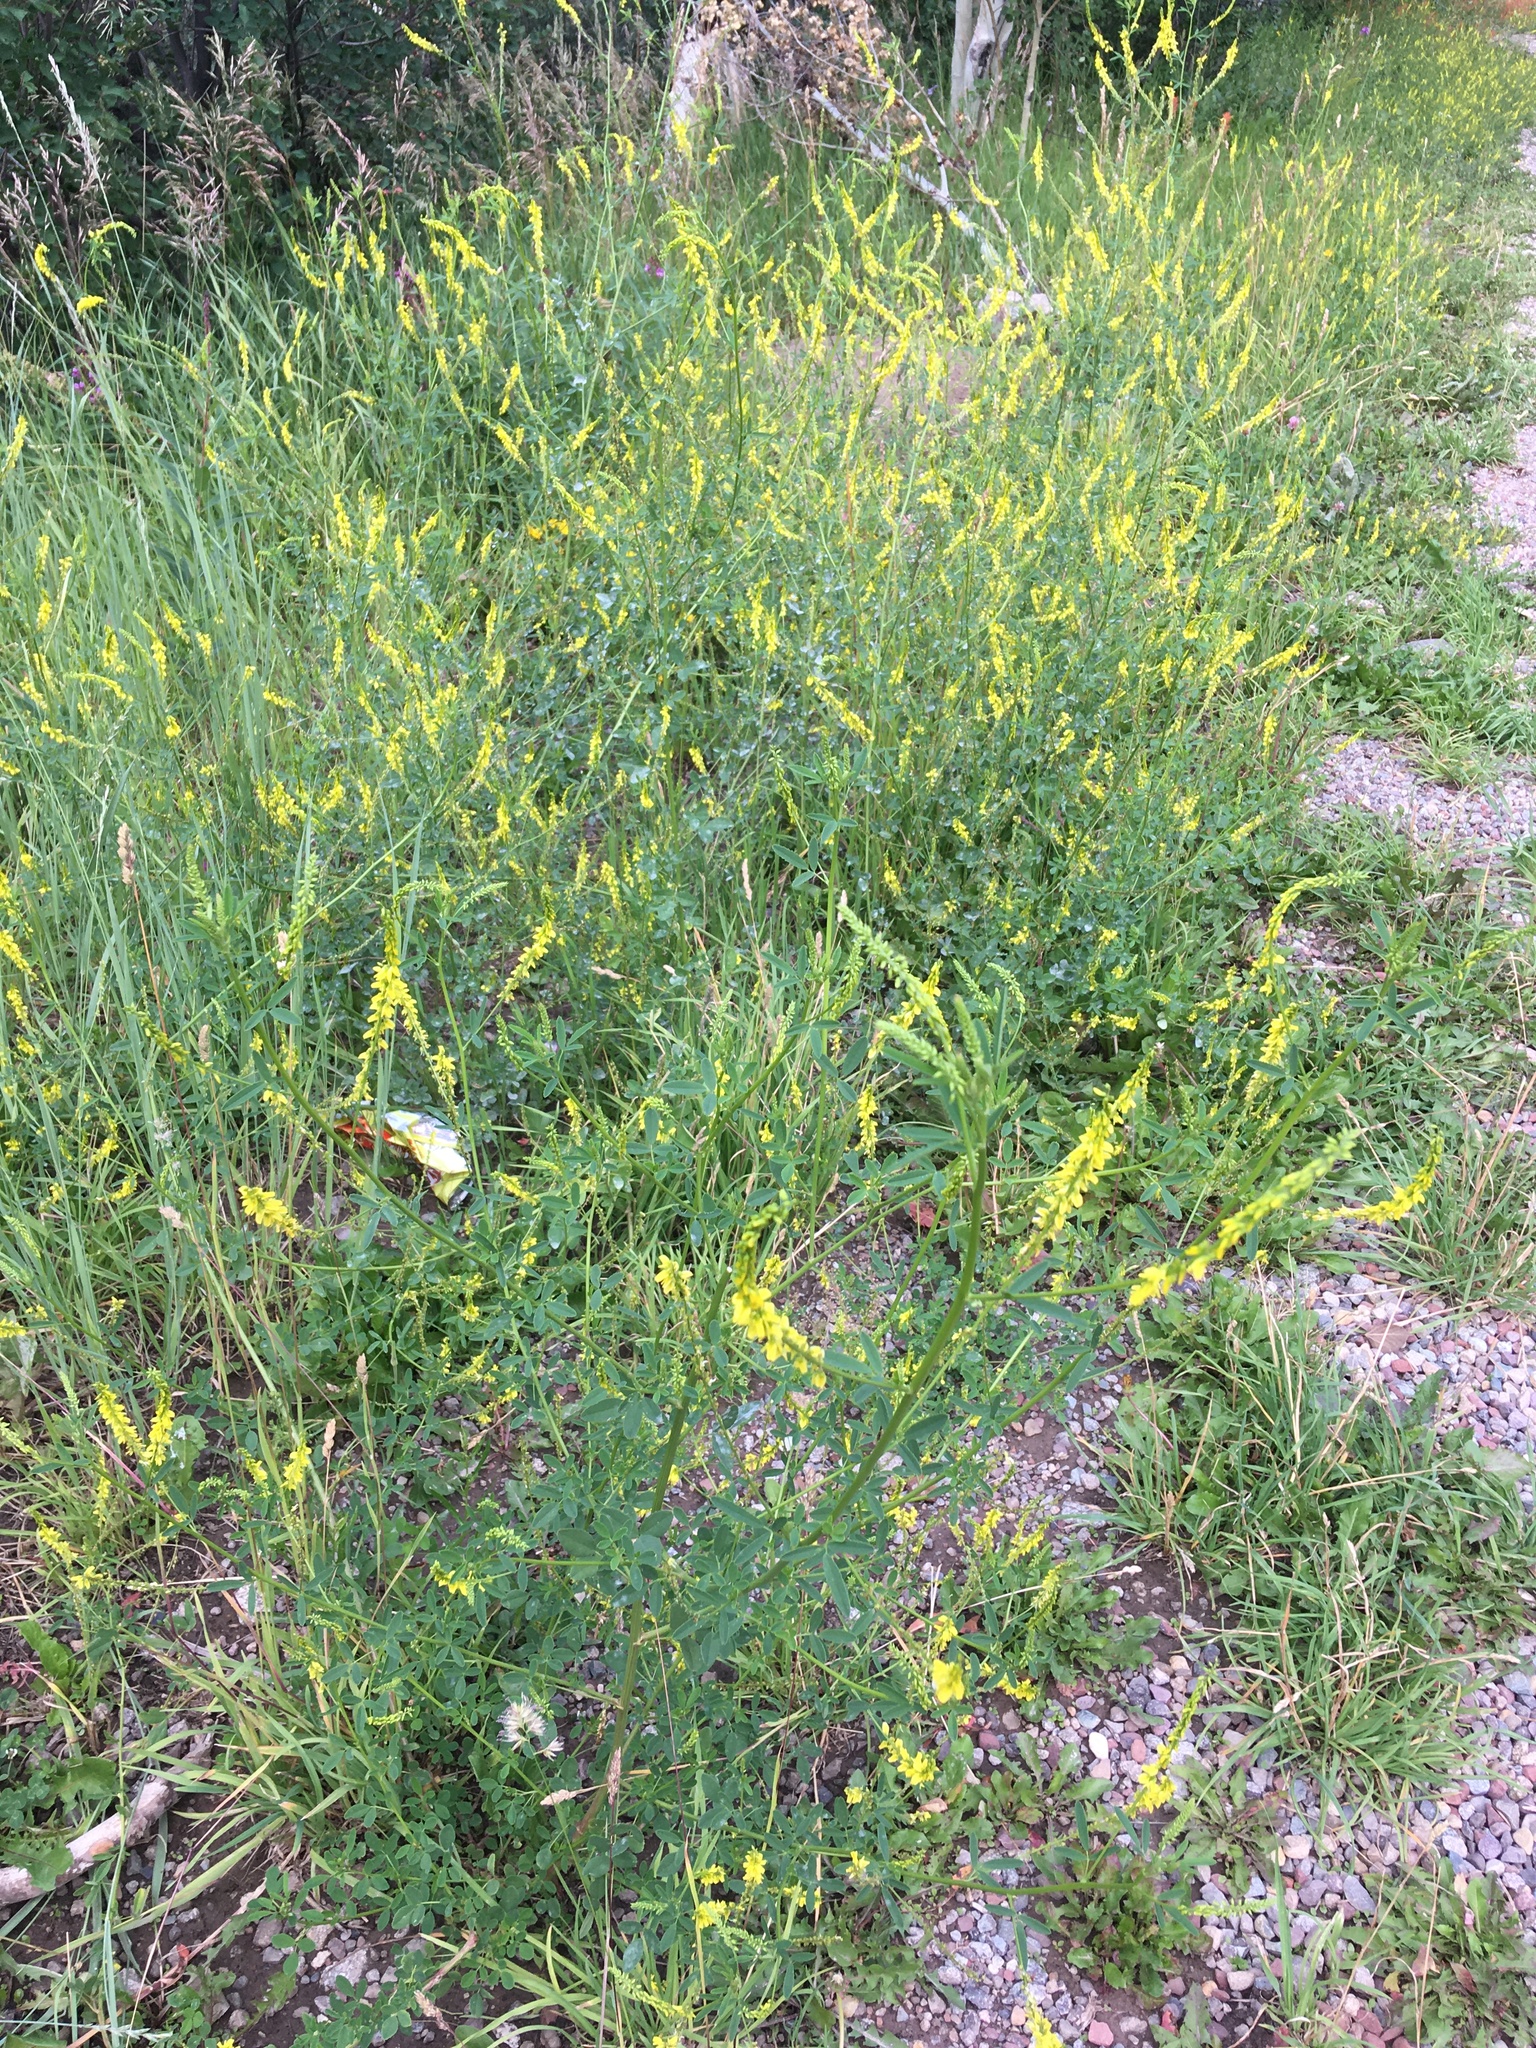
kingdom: Plantae
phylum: Tracheophyta
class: Magnoliopsida
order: Fabales
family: Fabaceae
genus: Melilotus
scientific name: Melilotus officinalis
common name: Sweetclover
